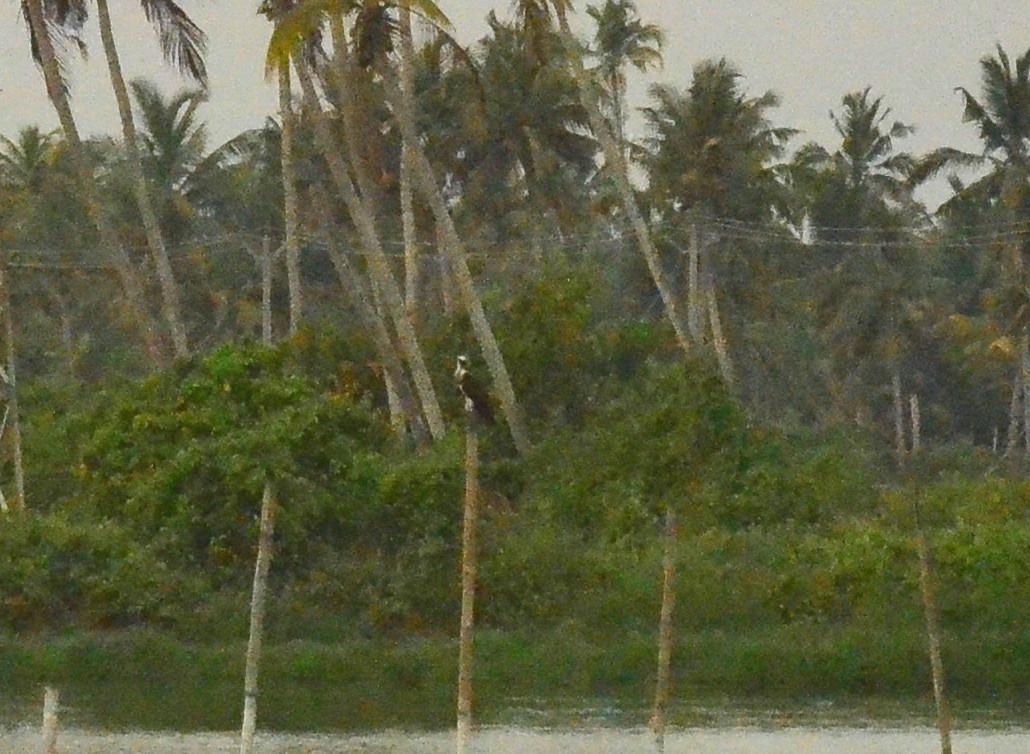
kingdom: Animalia
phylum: Chordata
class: Aves
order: Accipitriformes
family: Pandionidae
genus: Pandion
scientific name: Pandion haliaetus
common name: Osprey
